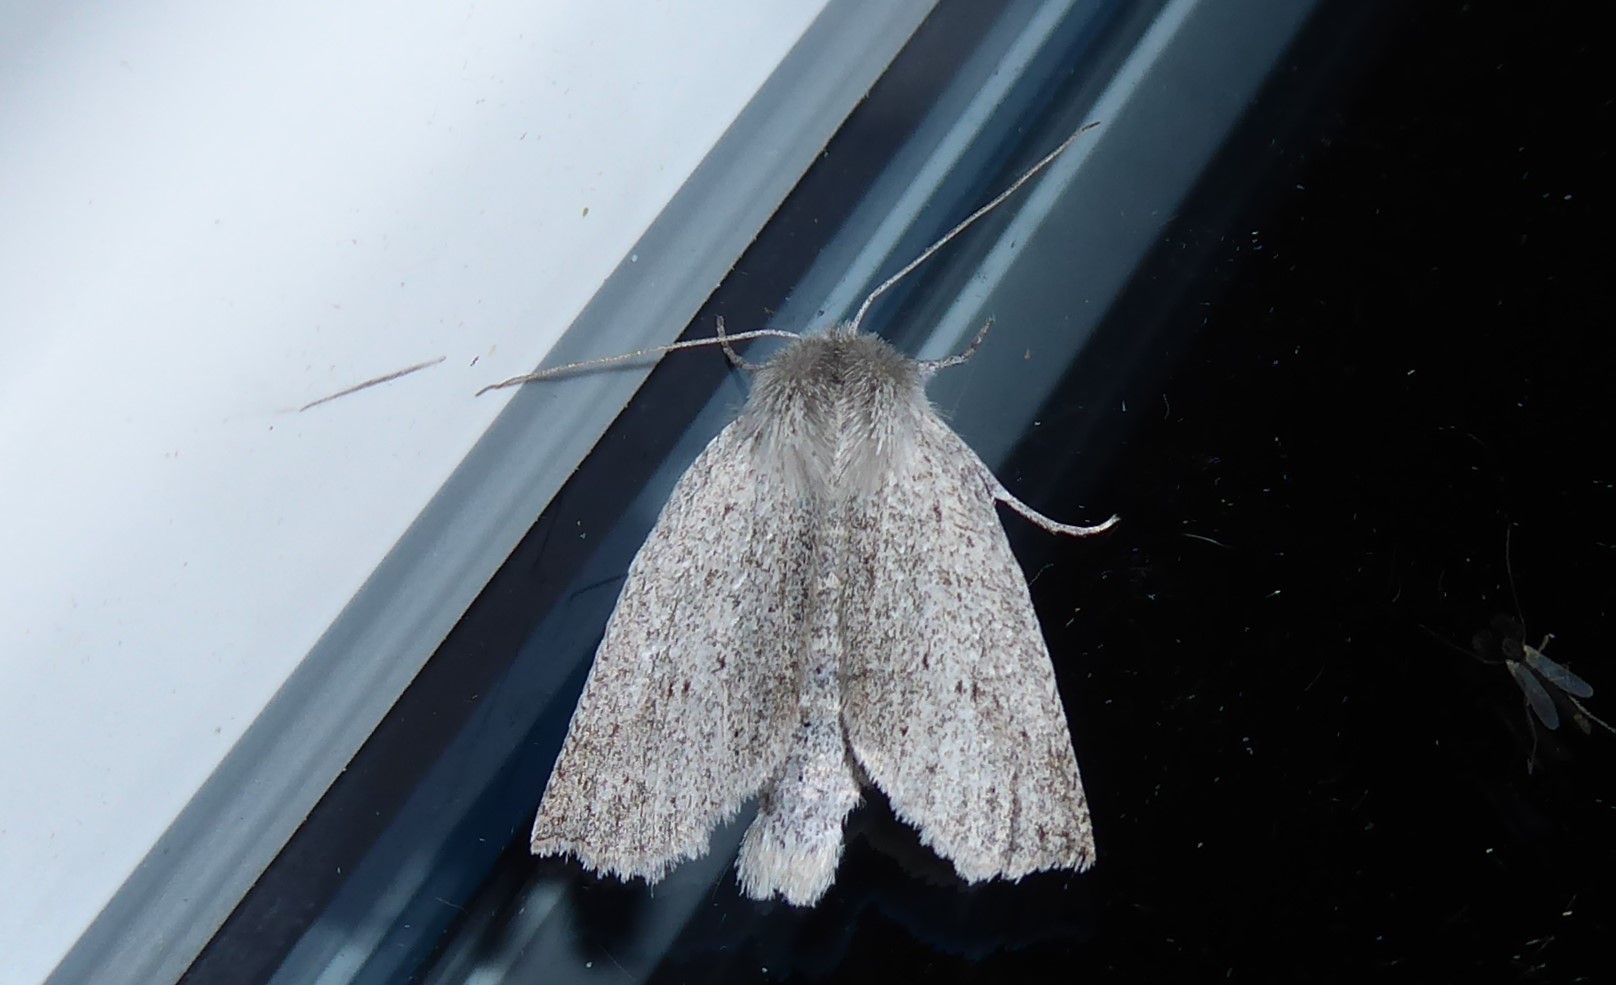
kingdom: Animalia
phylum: Arthropoda
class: Insecta
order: Lepidoptera
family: Geometridae
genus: Declana
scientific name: Declana leptomera
